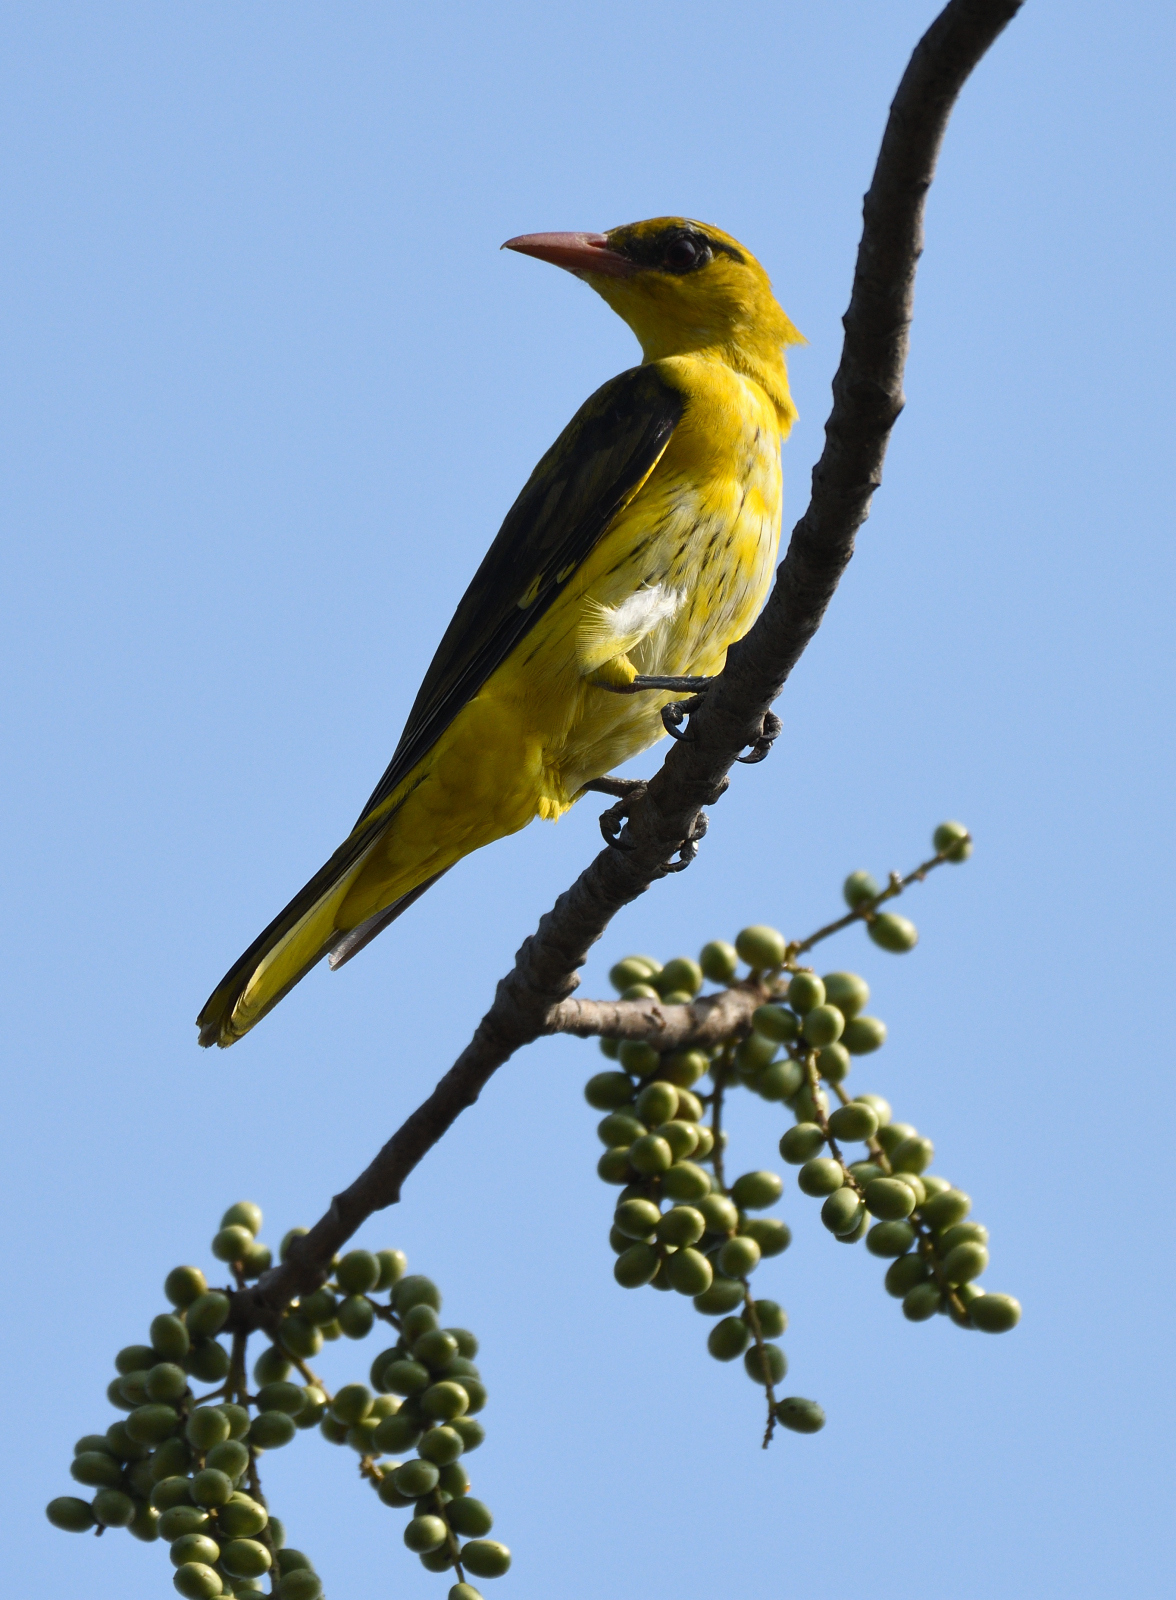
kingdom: Animalia
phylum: Chordata
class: Aves
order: Passeriformes
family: Oriolidae
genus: Oriolus
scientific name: Oriolus kundoo
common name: Indian golden oriole
